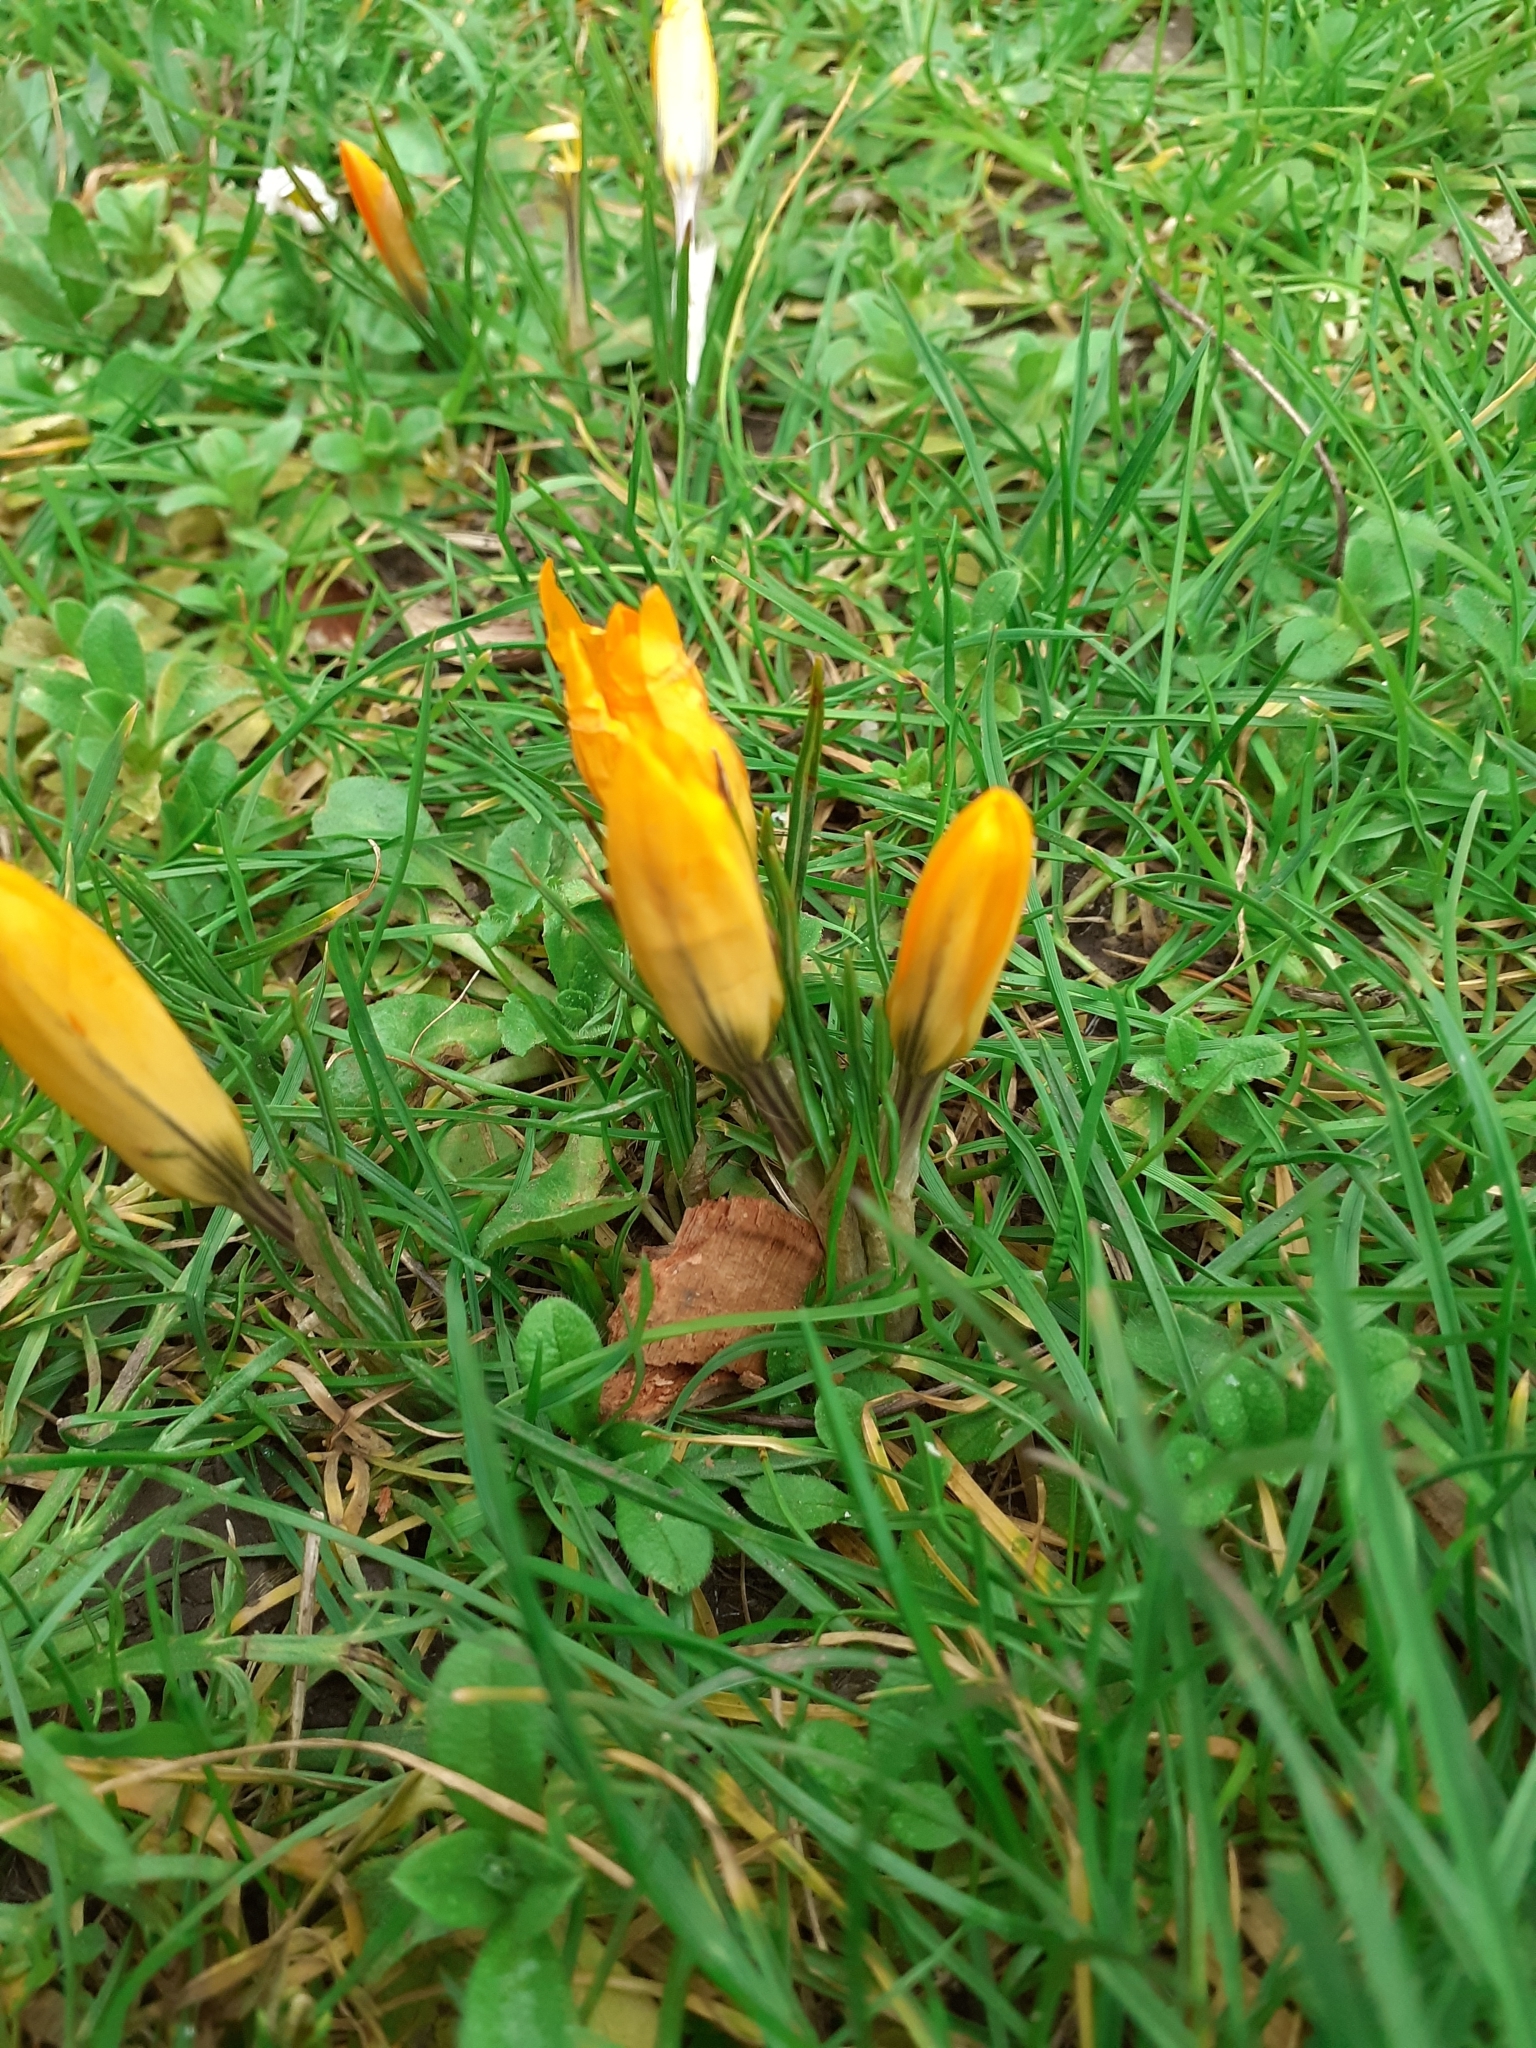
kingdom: Plantae
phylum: Tracheophyta
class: Liliopsida
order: Asparagales
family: Iridaceae
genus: Crocus
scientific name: Crocus luteus
